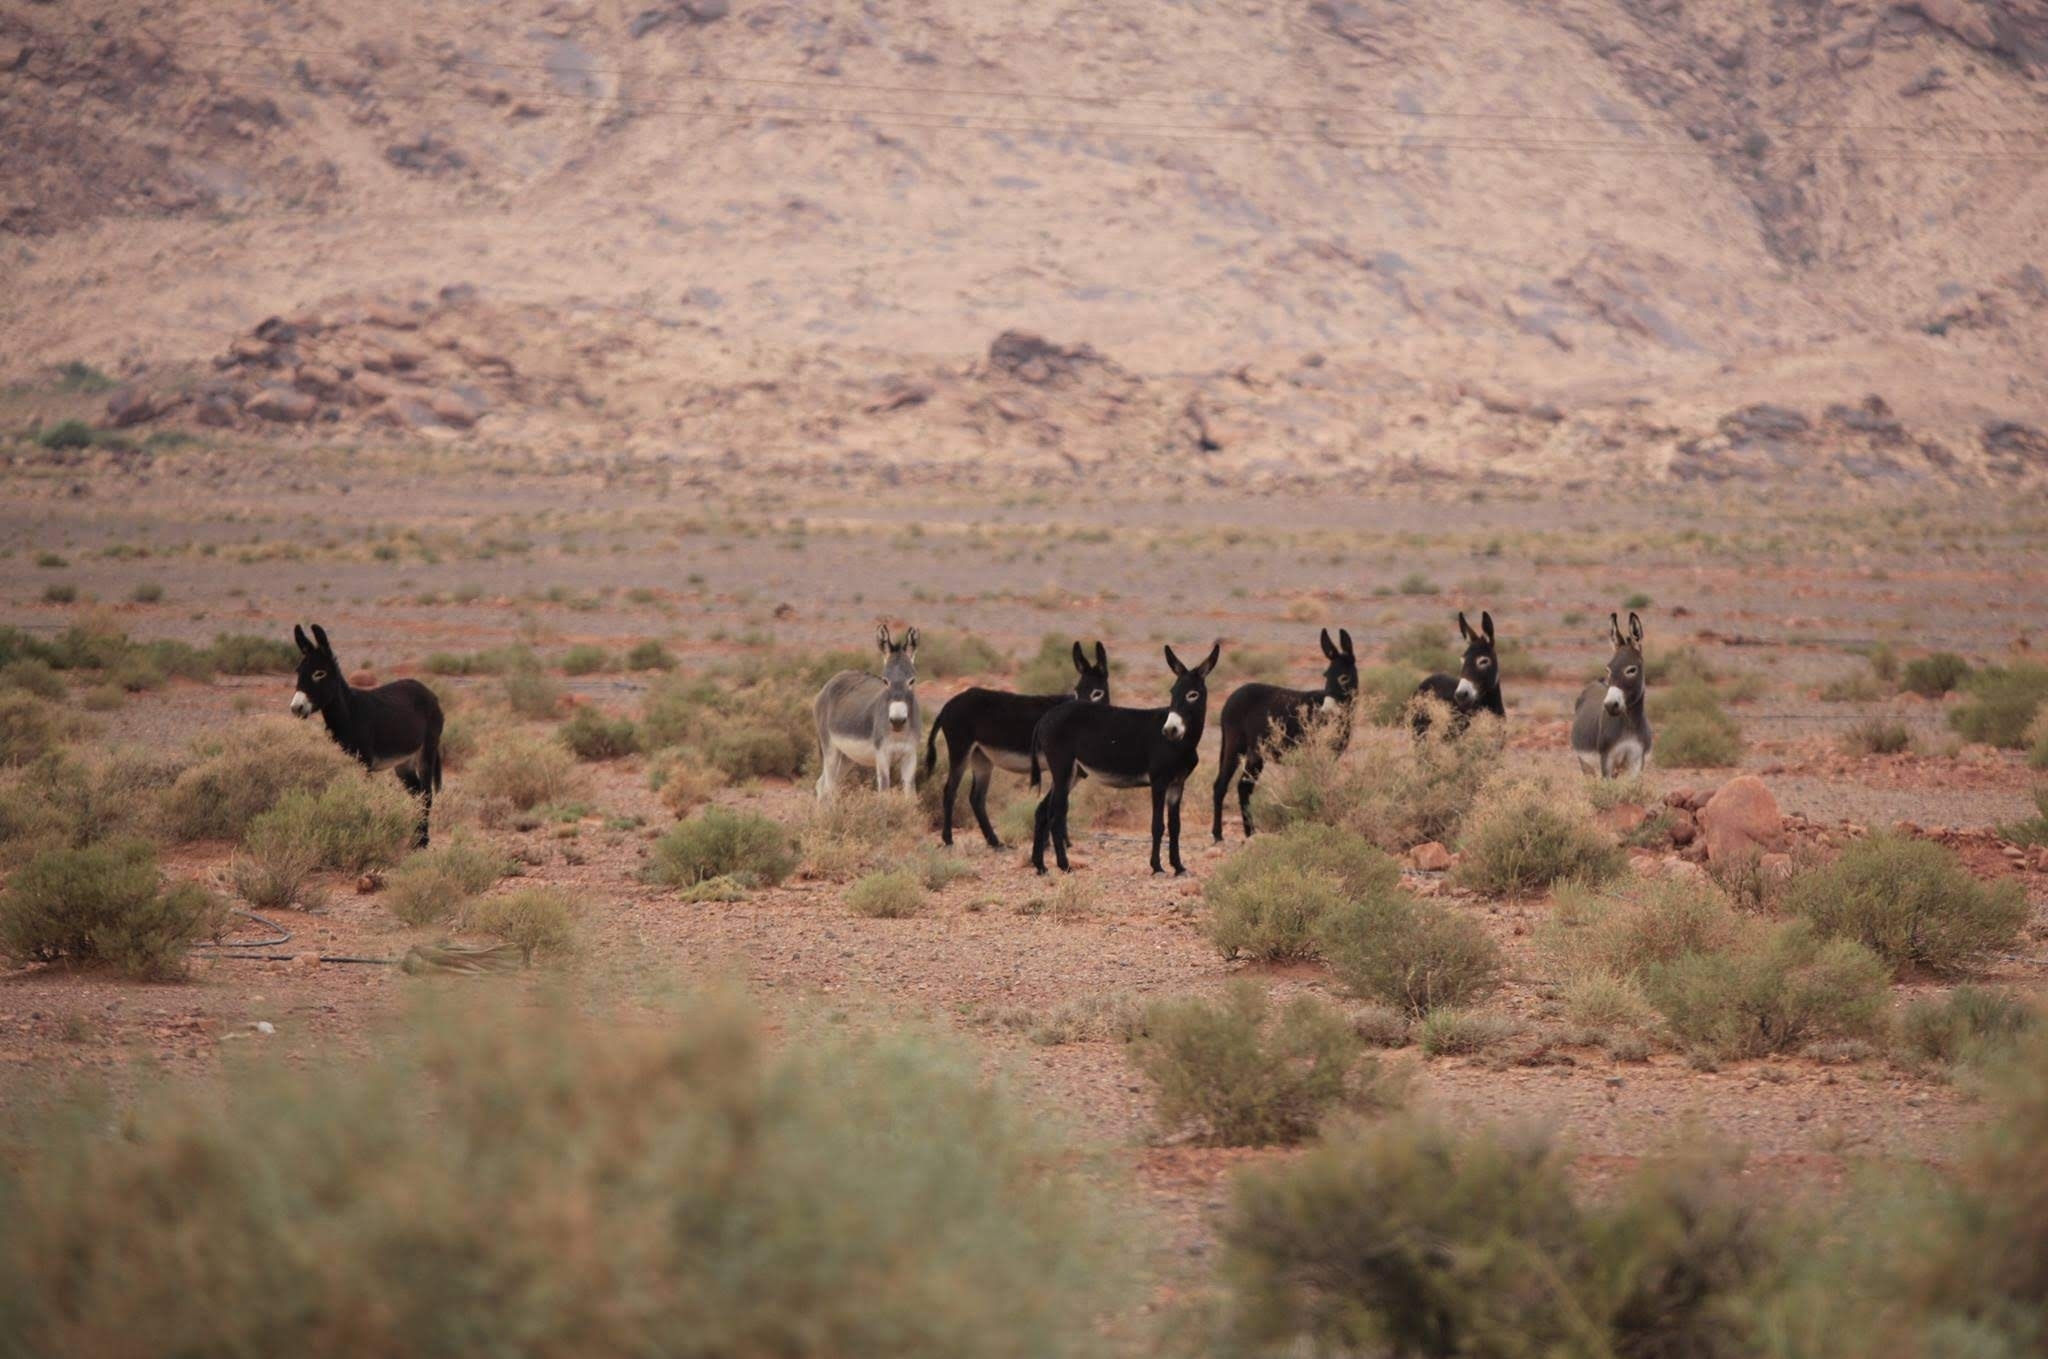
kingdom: Animalia
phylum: Chordata
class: Mammalia
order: Perissodactyla
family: Equidae
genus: Equus
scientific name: Equus asinus
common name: Ass
